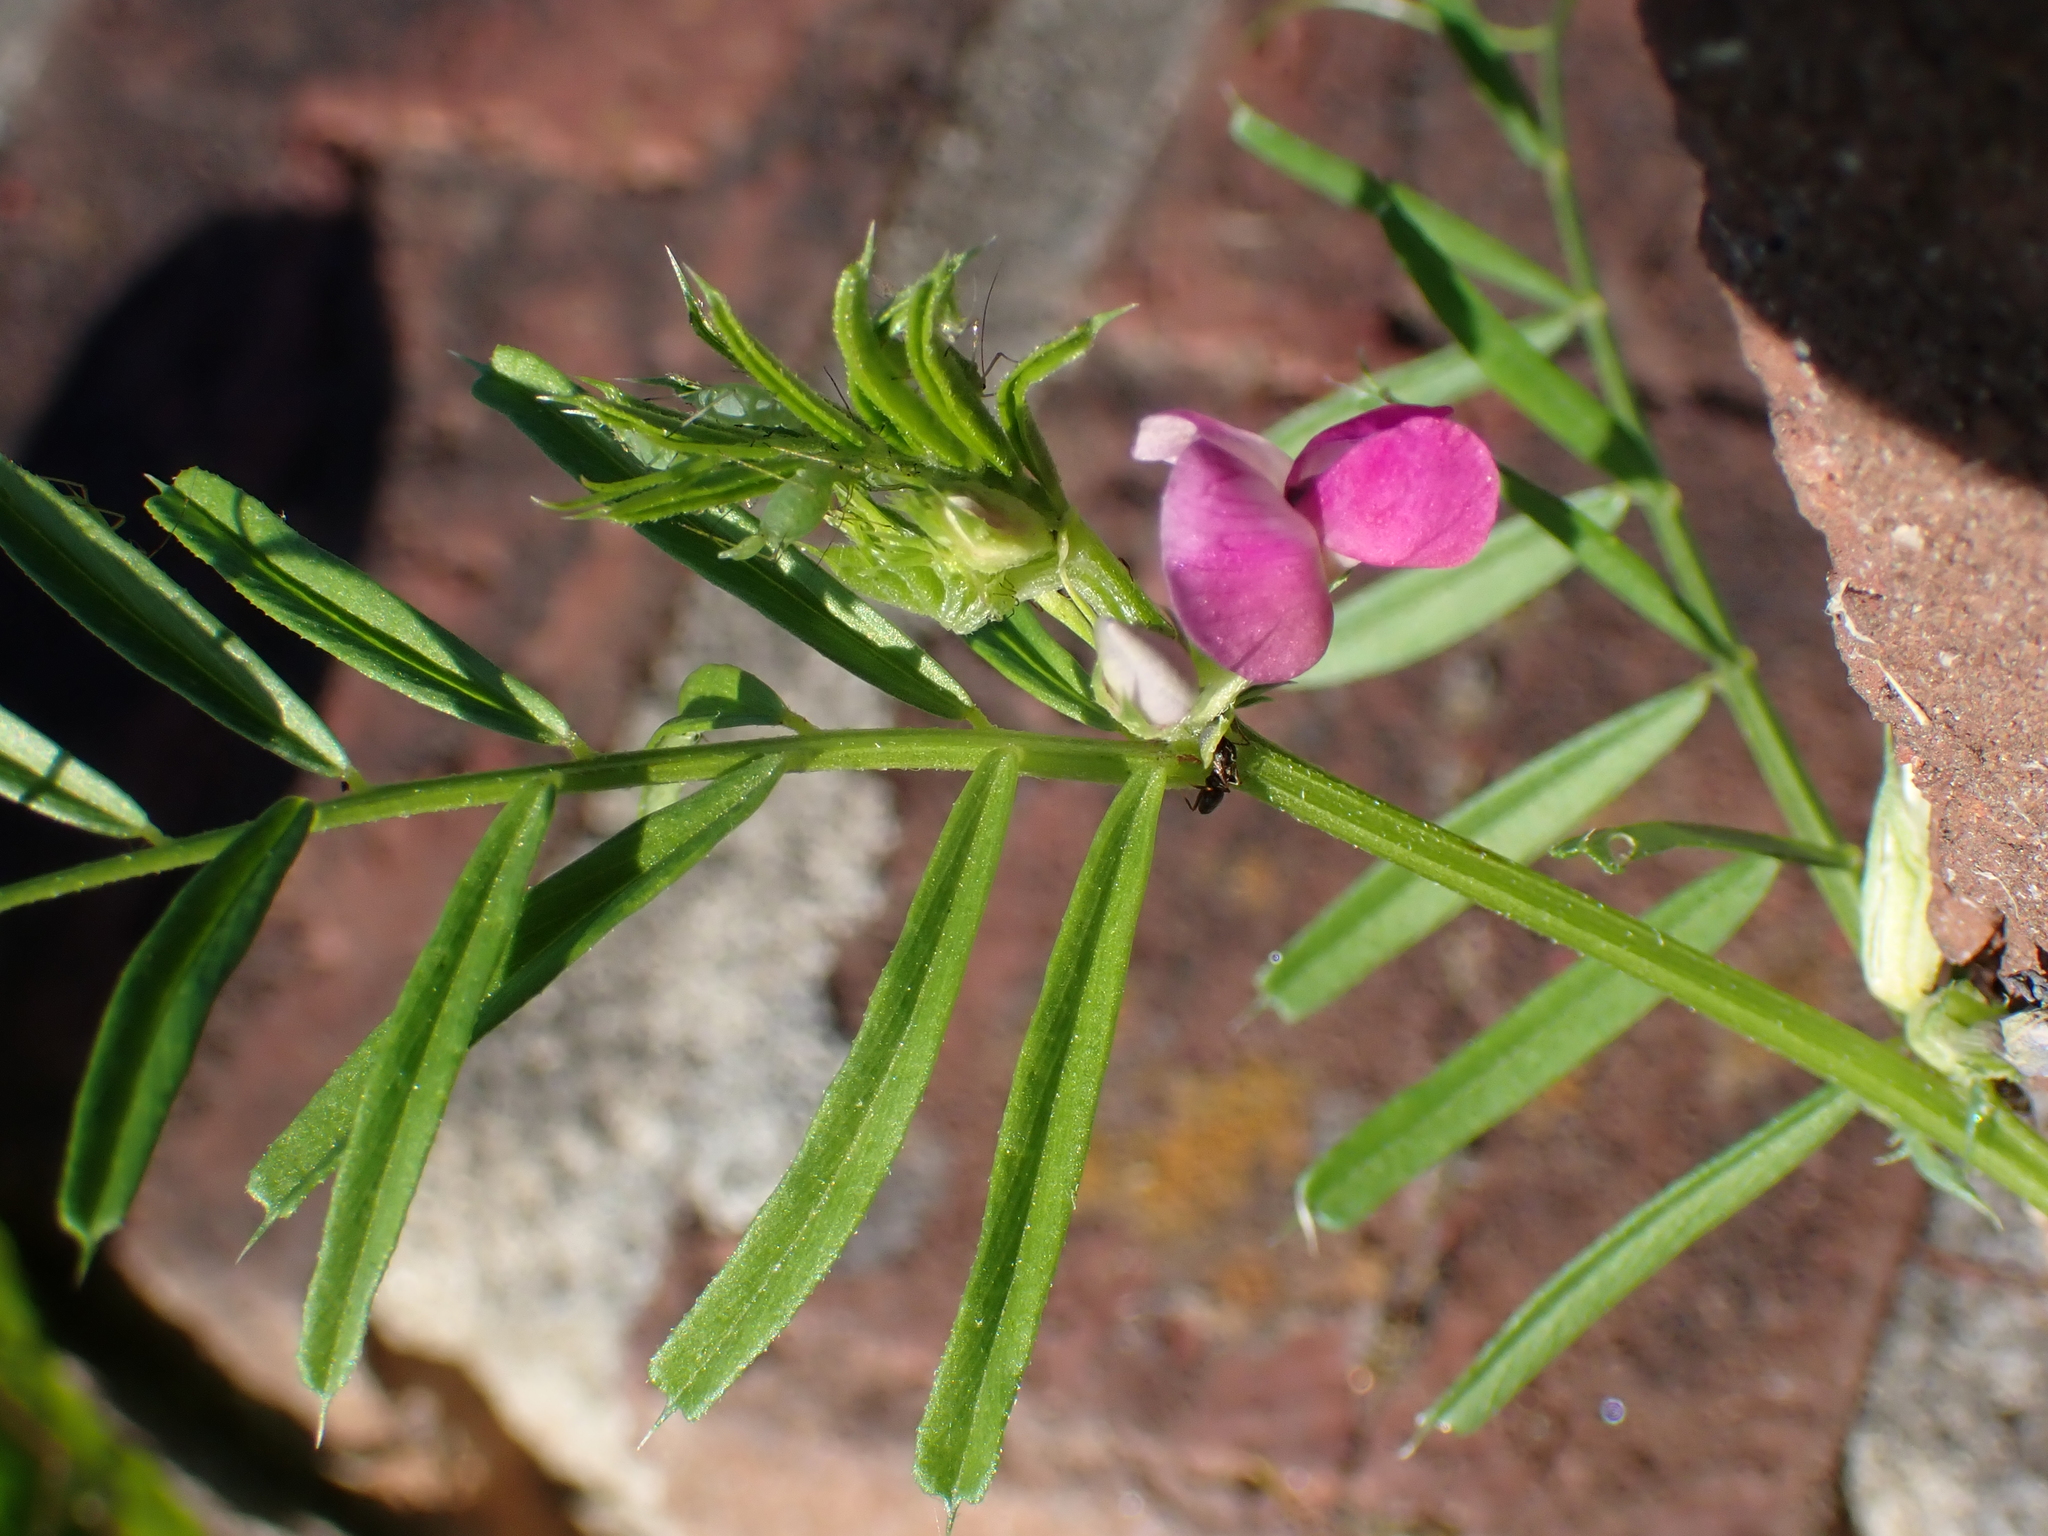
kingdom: Plantae
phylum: Tracheophyta
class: Magnoliopsida
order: Fabales
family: Fabaceae
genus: Vicia
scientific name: Vicia sativa
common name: Garden vetch
